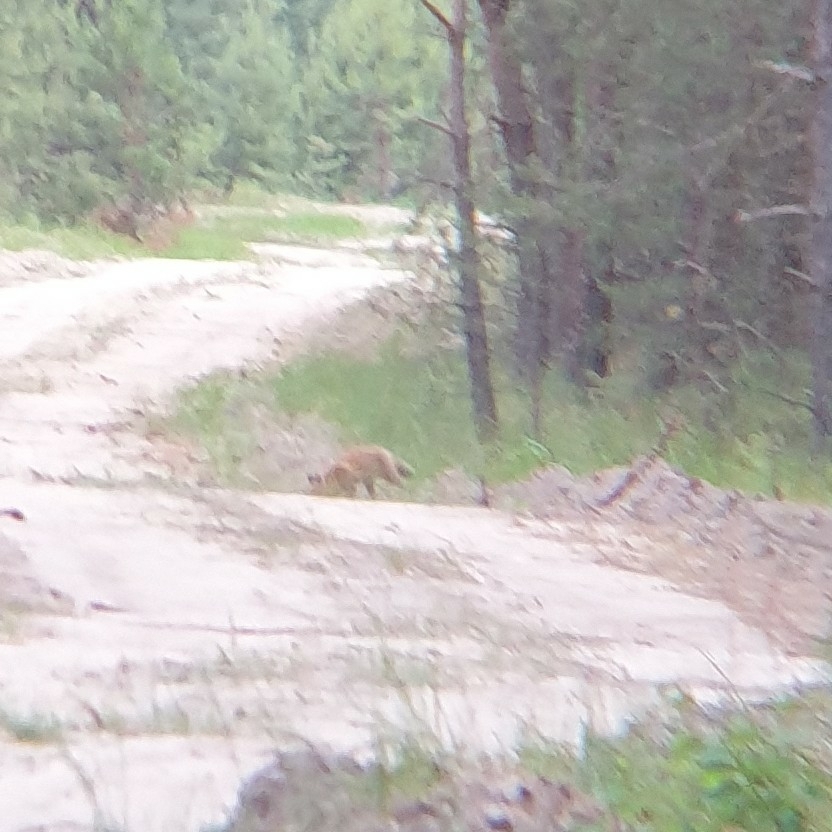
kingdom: Animalia
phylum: Chordata
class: Mammalia
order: Carnivora
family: Canidae
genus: Vulpes
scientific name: Vulpes vulpes
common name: Red fox
